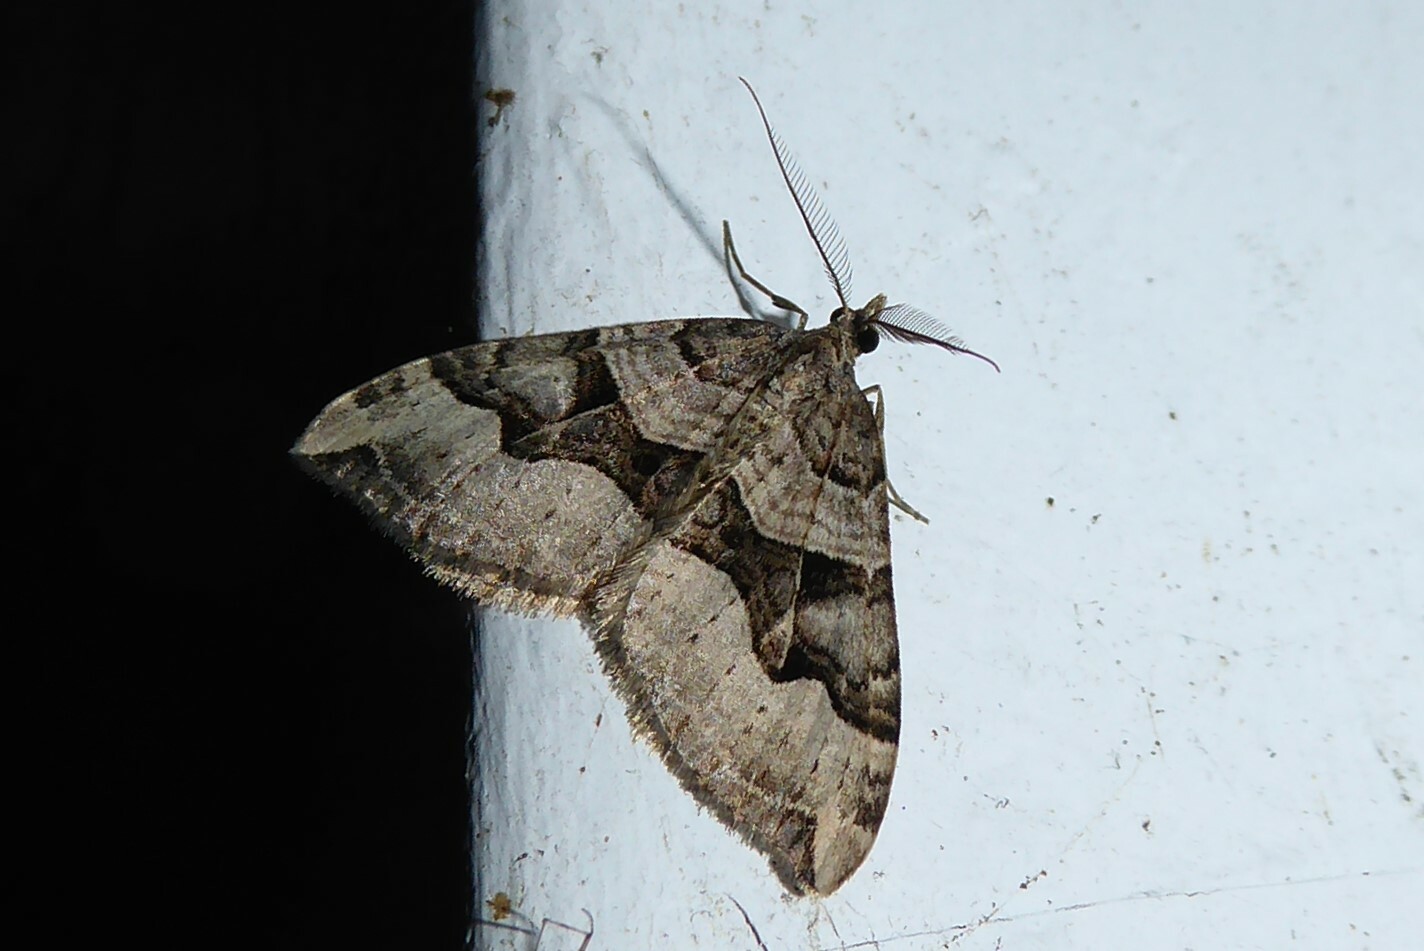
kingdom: Animalia
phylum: Arthropoda
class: Insecta
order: Lepidoptera
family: Geometridae
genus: Xanthorhoe
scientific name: Xanthorhoe semifissata
